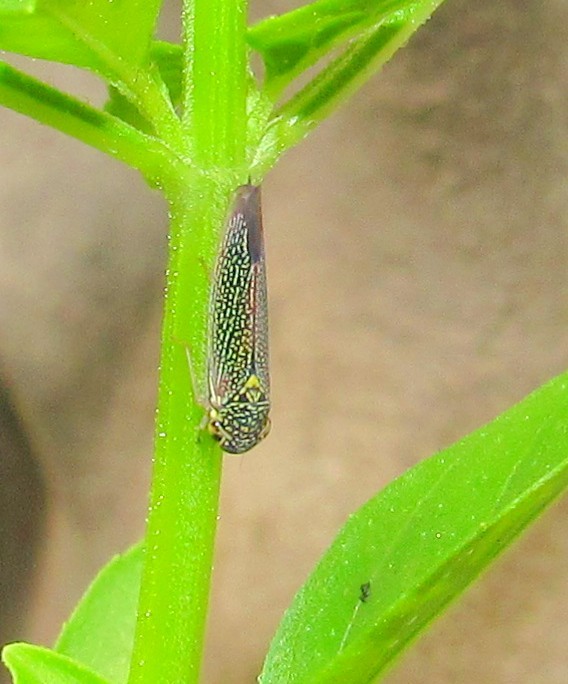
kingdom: Animalia
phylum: Arthropoda
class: Insecta
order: Hemiptera
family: Cicadellidae
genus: Macugonalia
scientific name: Macugonalia cavifrons
